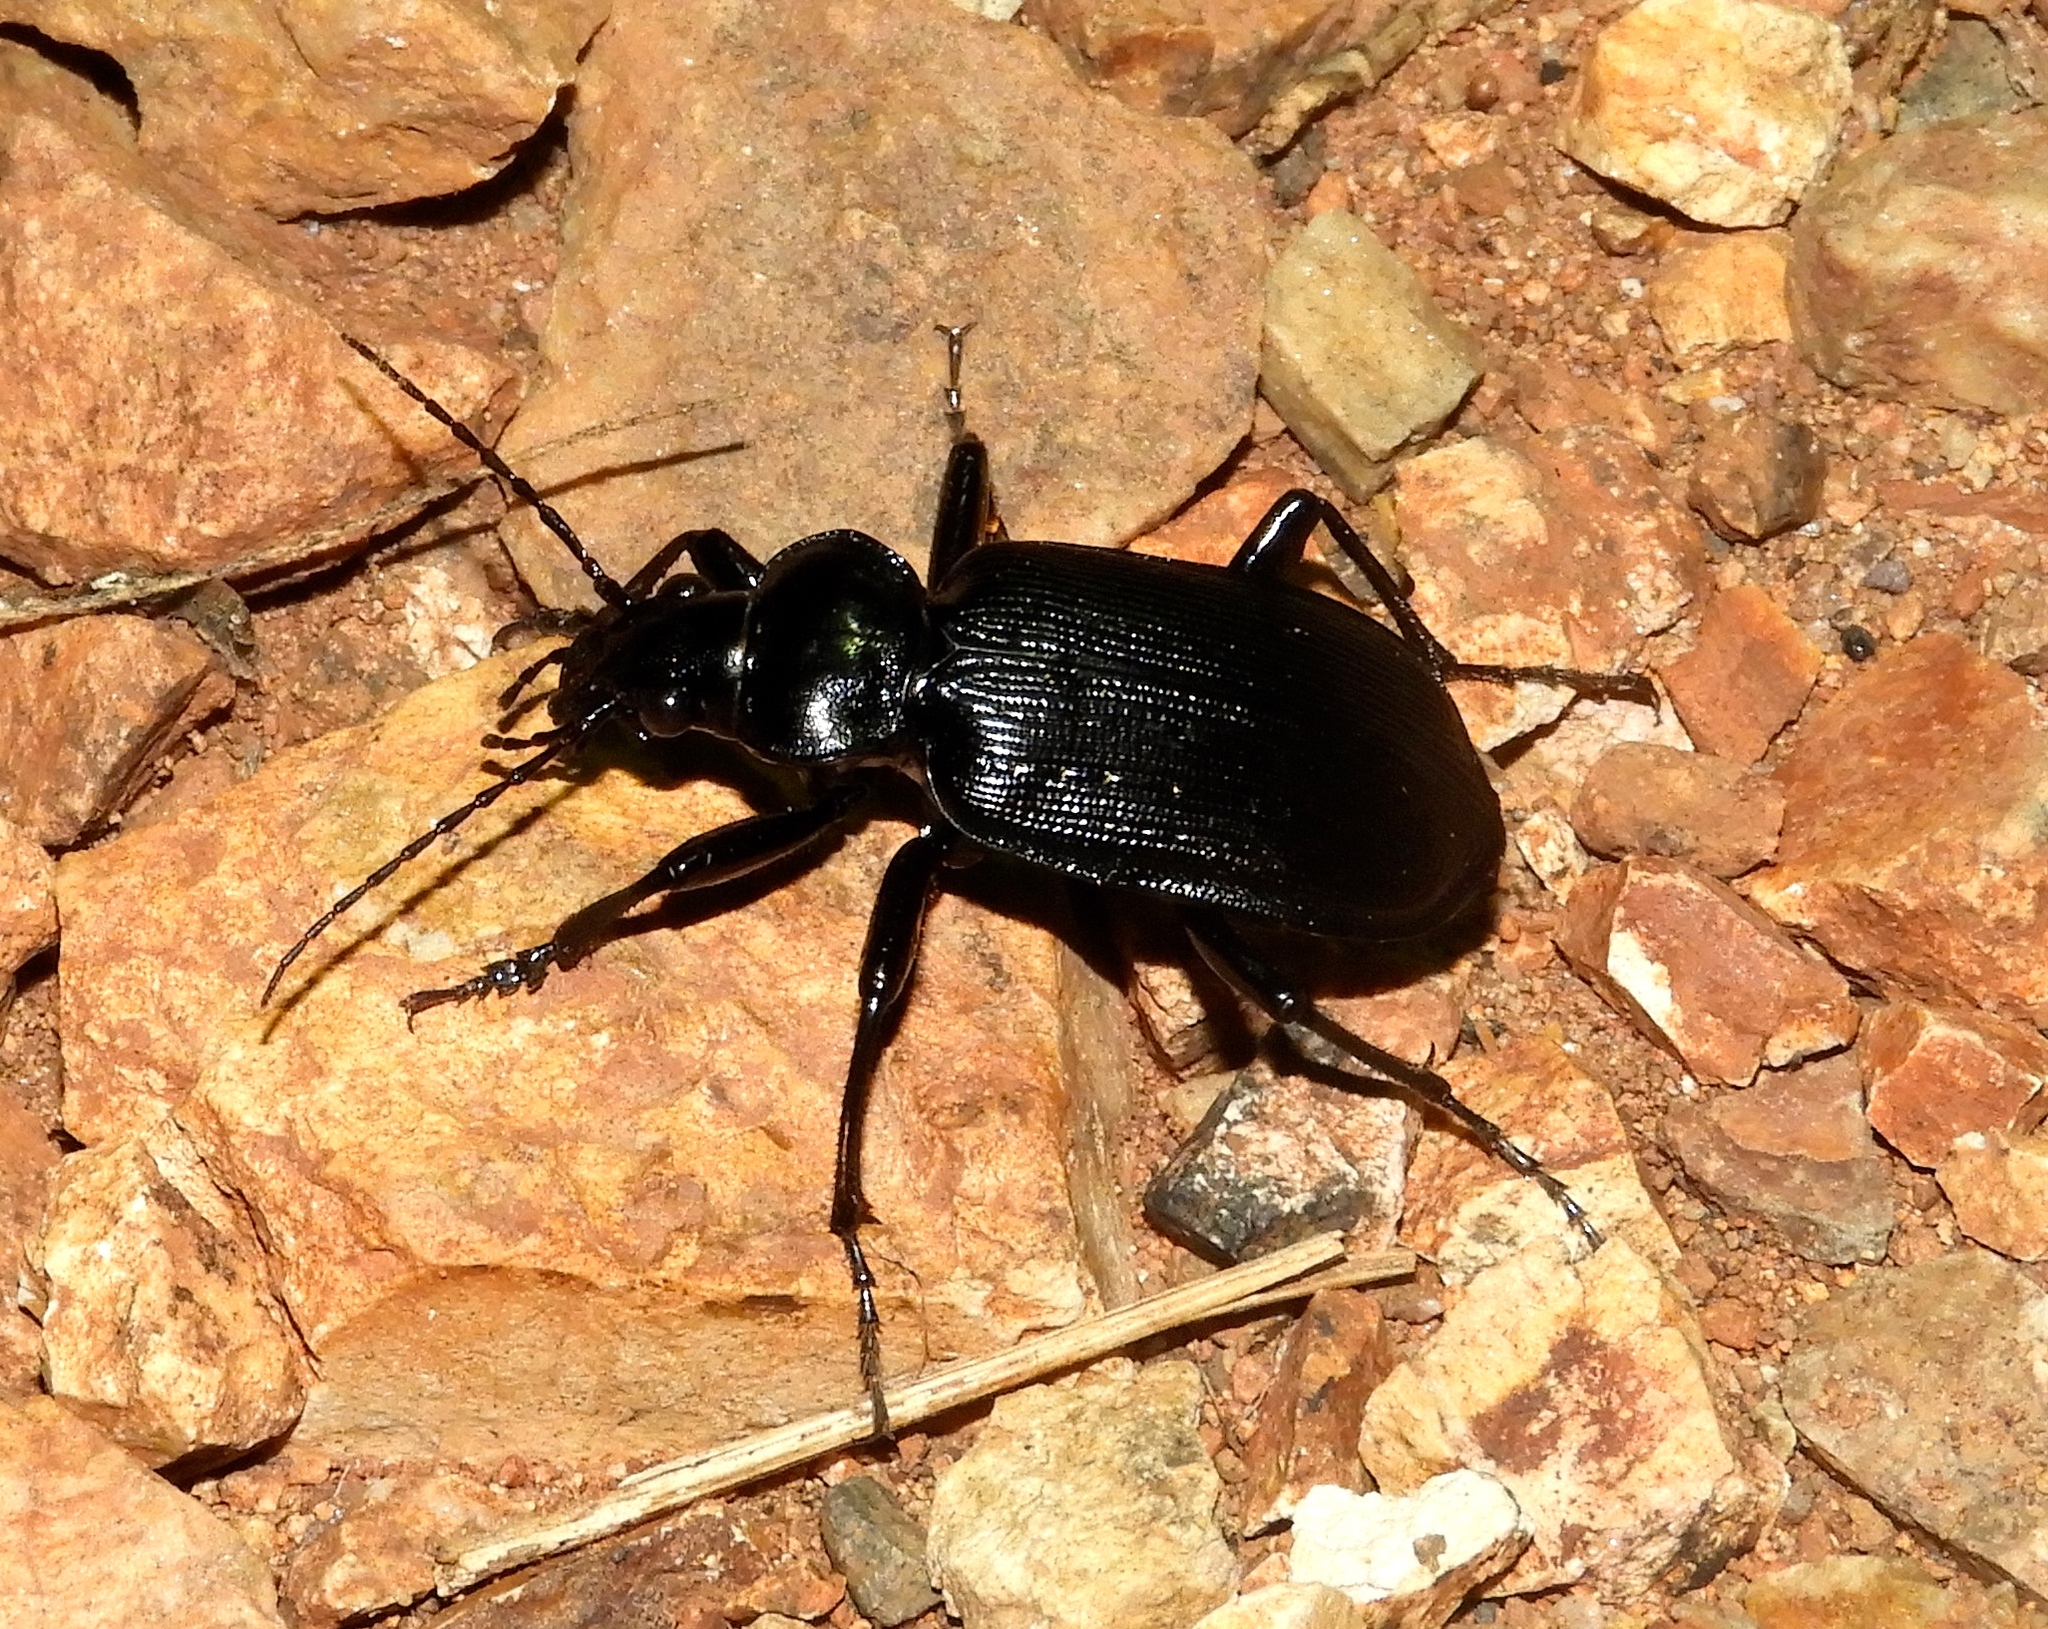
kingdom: Animalia
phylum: Arthropoda
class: Insecta
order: Coleoptera
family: Carabidae
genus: Calosoma
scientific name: Calosoma sayi
